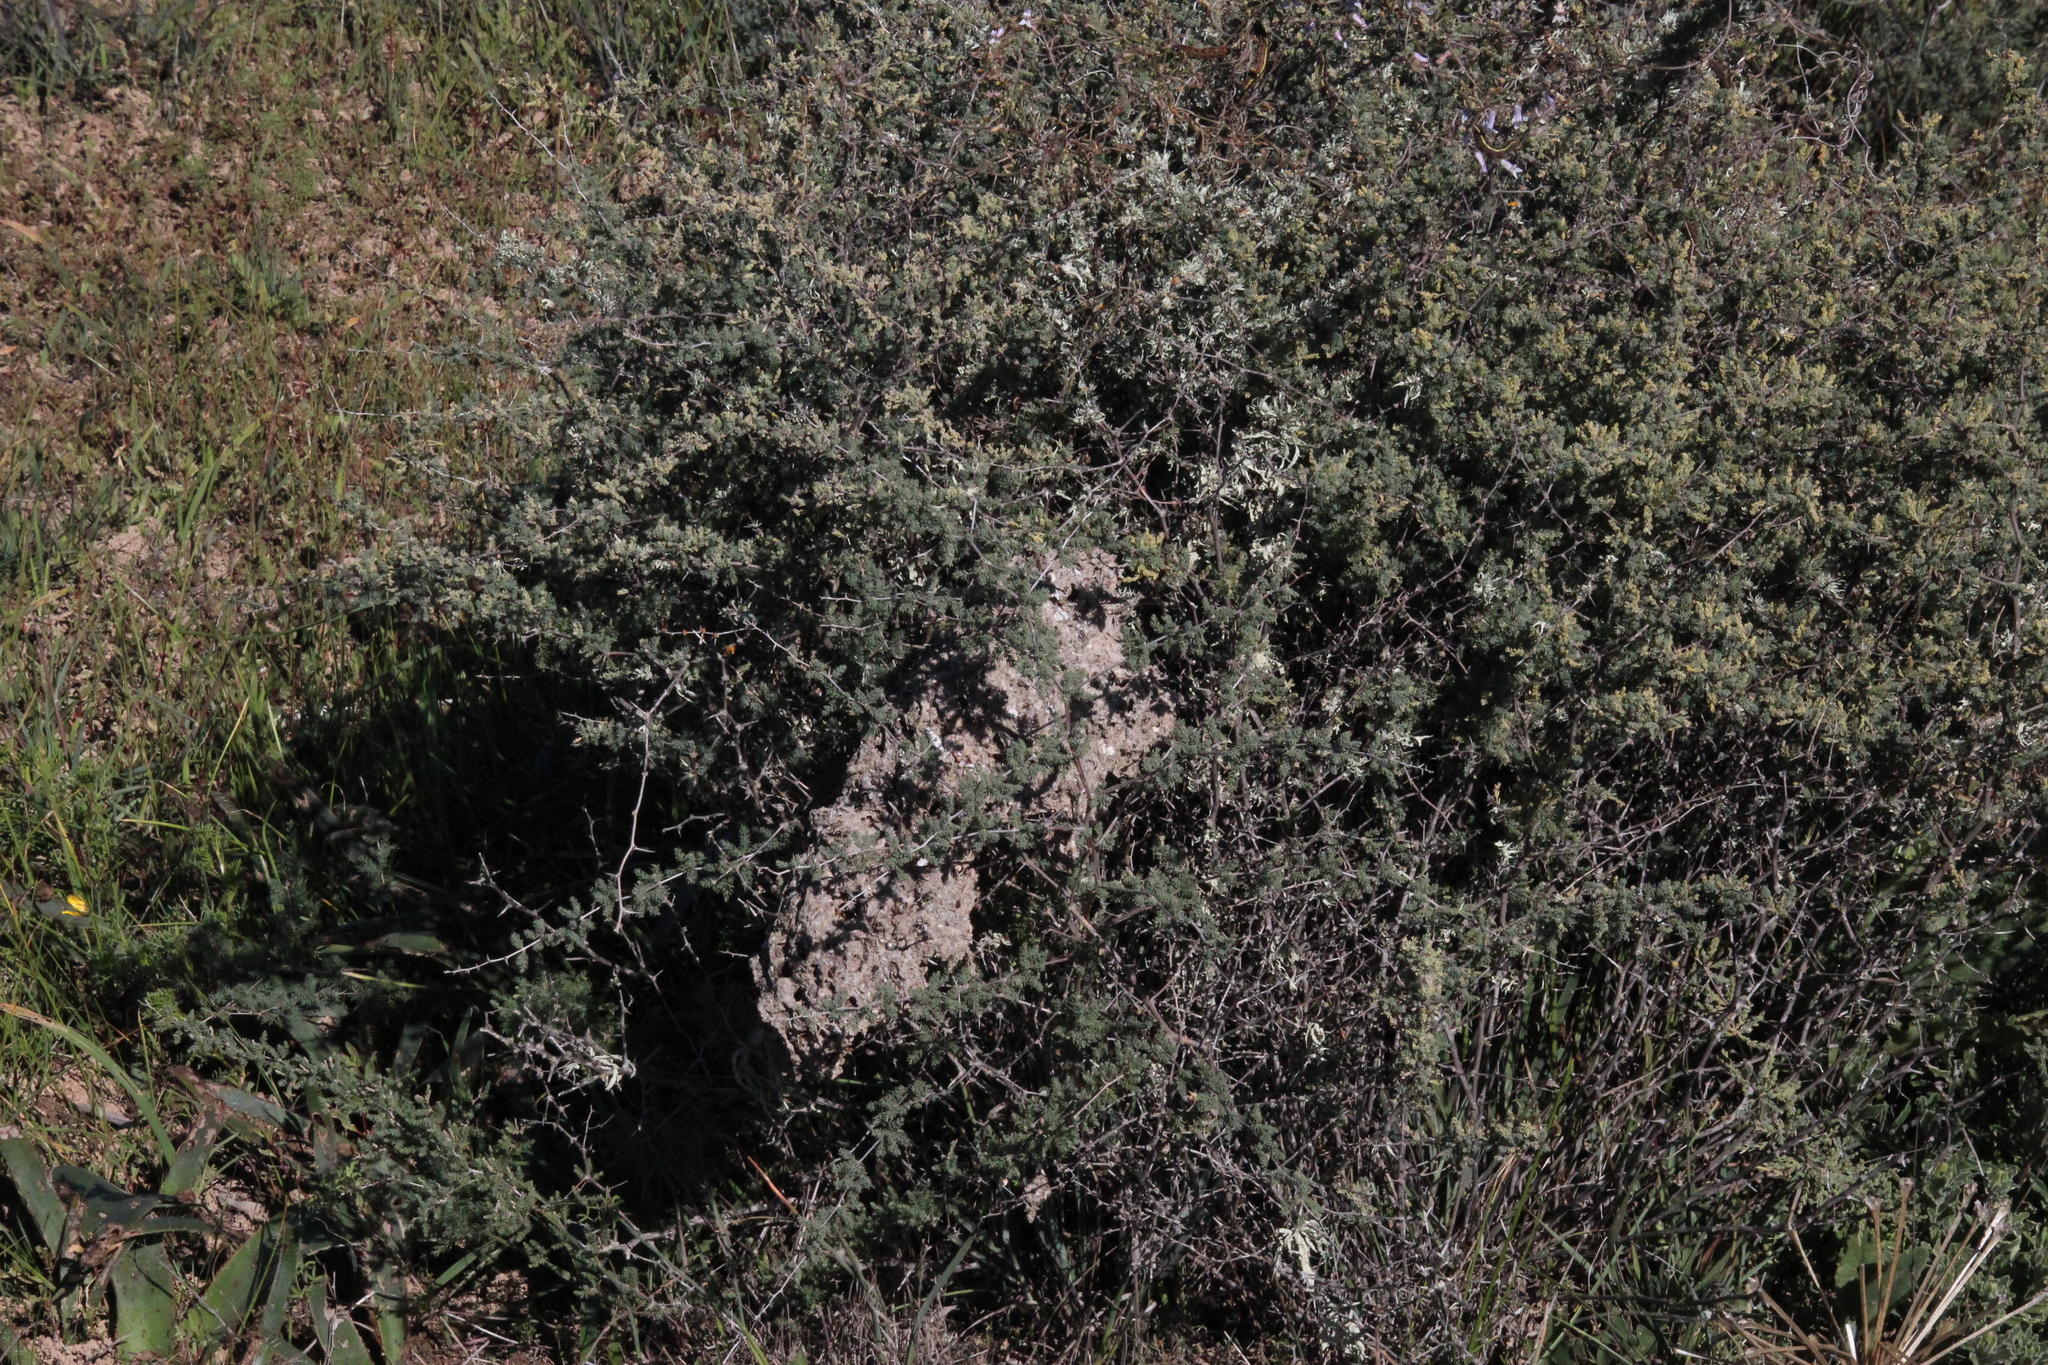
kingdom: Plantae
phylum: Tracheophyta
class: Liliopsida
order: Asparagales
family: Asparagaceae
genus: Asparagus
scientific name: Asparagus capensis
